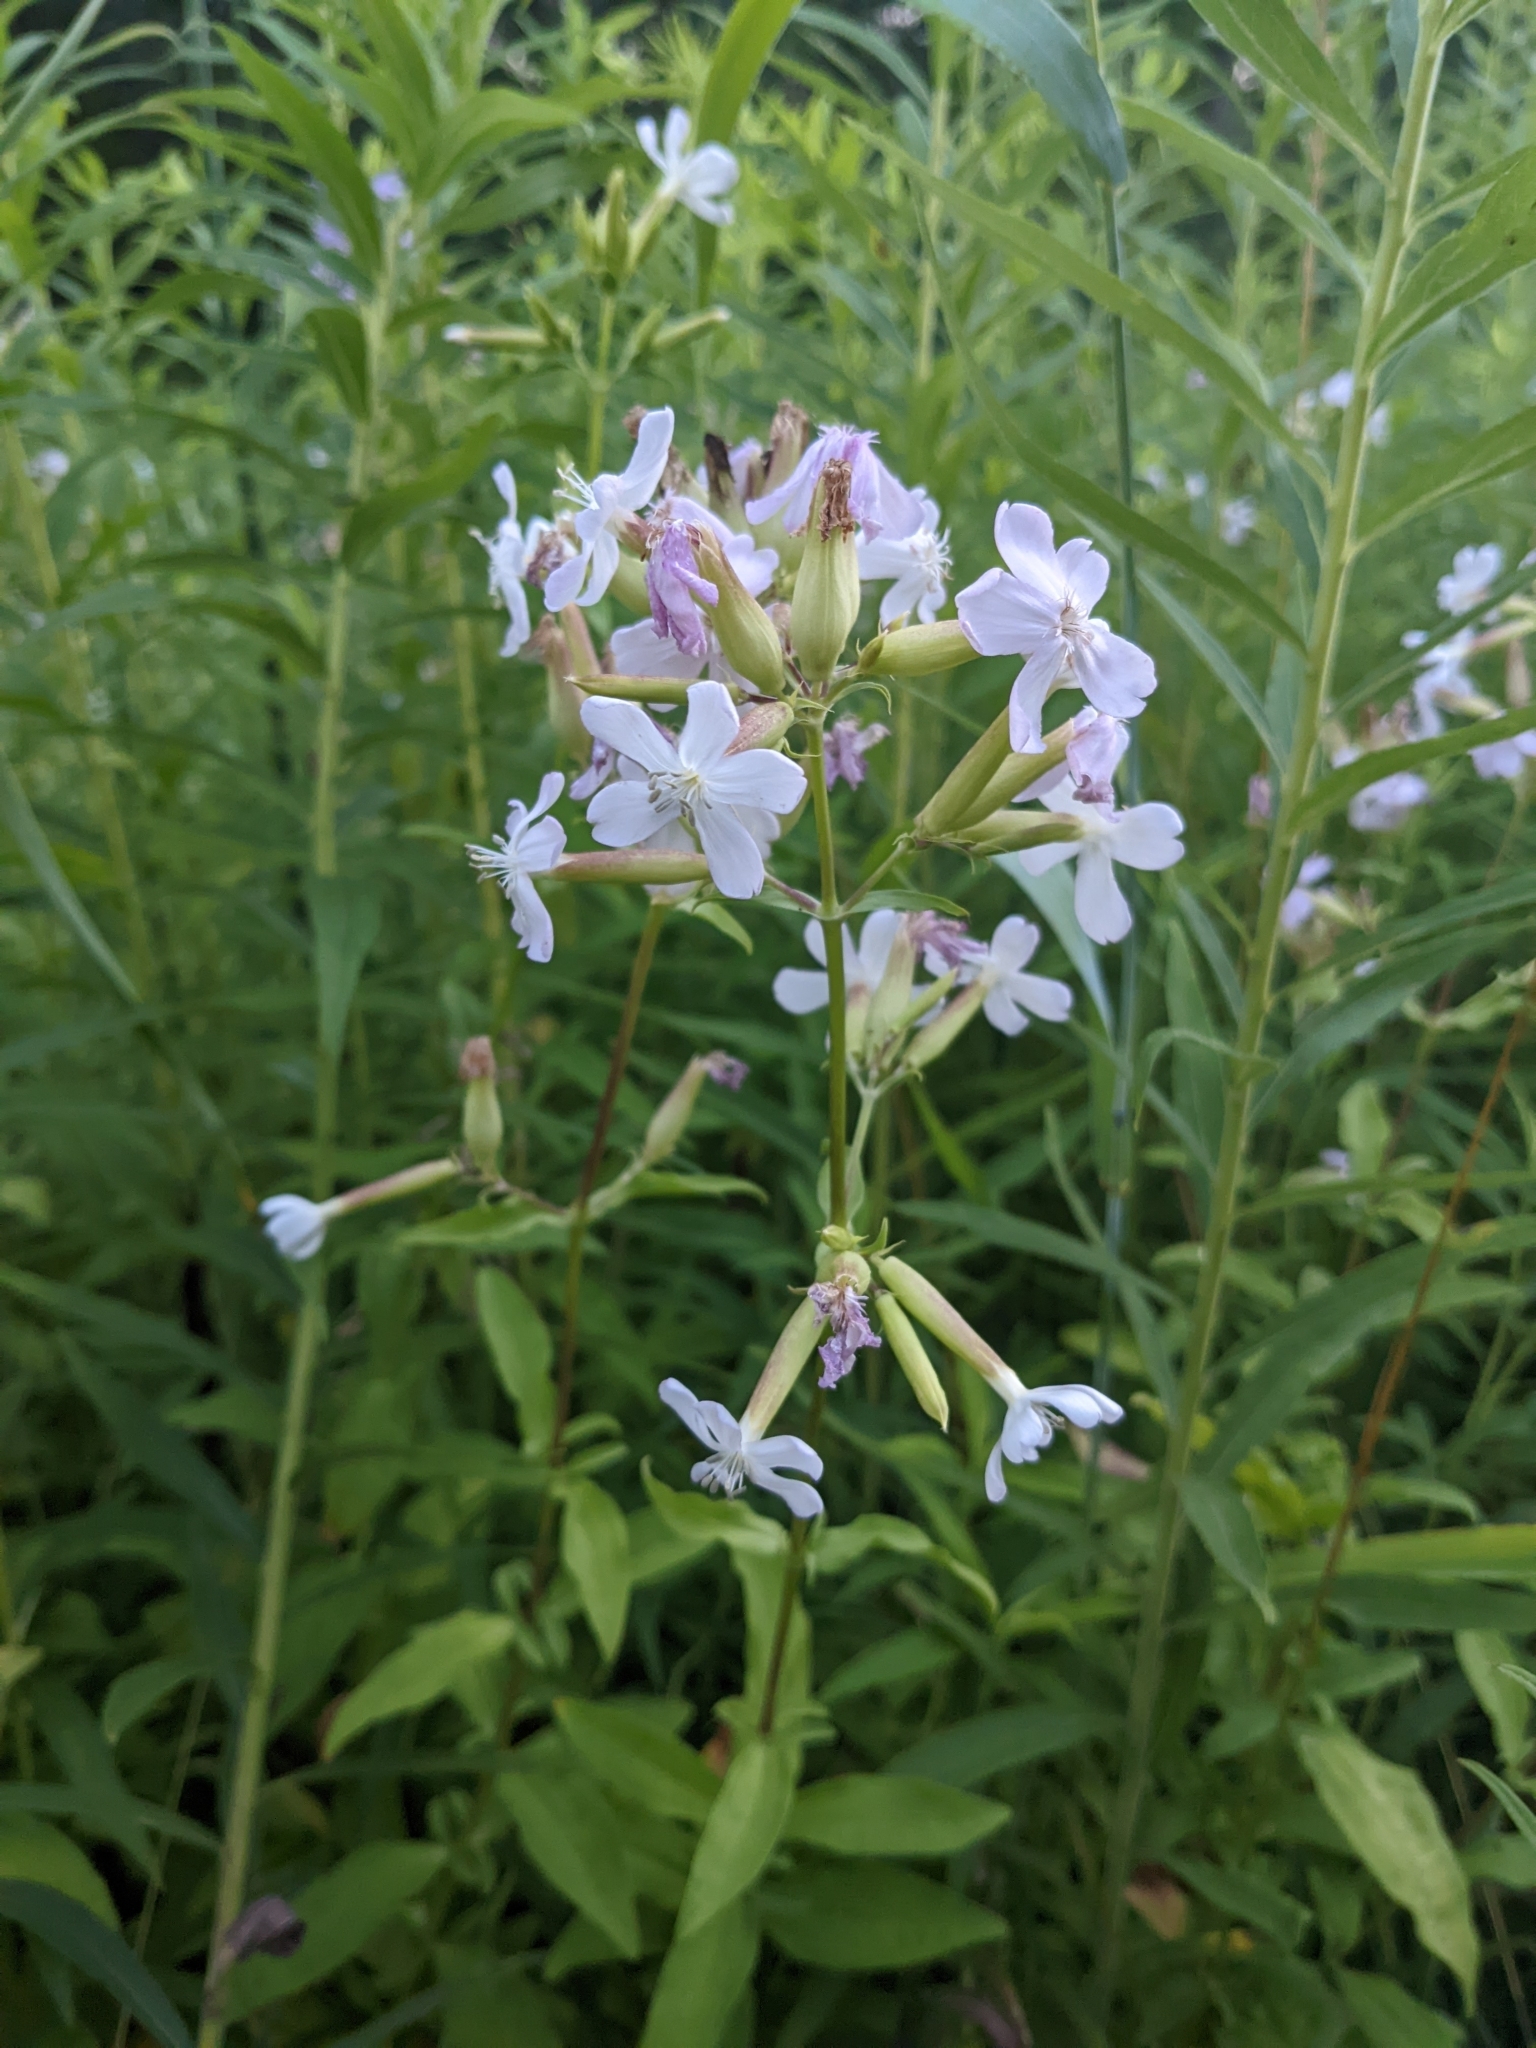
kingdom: Plantae
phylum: Tracheophyta
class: Magnoliopsida
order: Caryophyllales
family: Caryophyllaceae
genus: Saponaria
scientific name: Saponaria officinalis
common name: Soapwort
